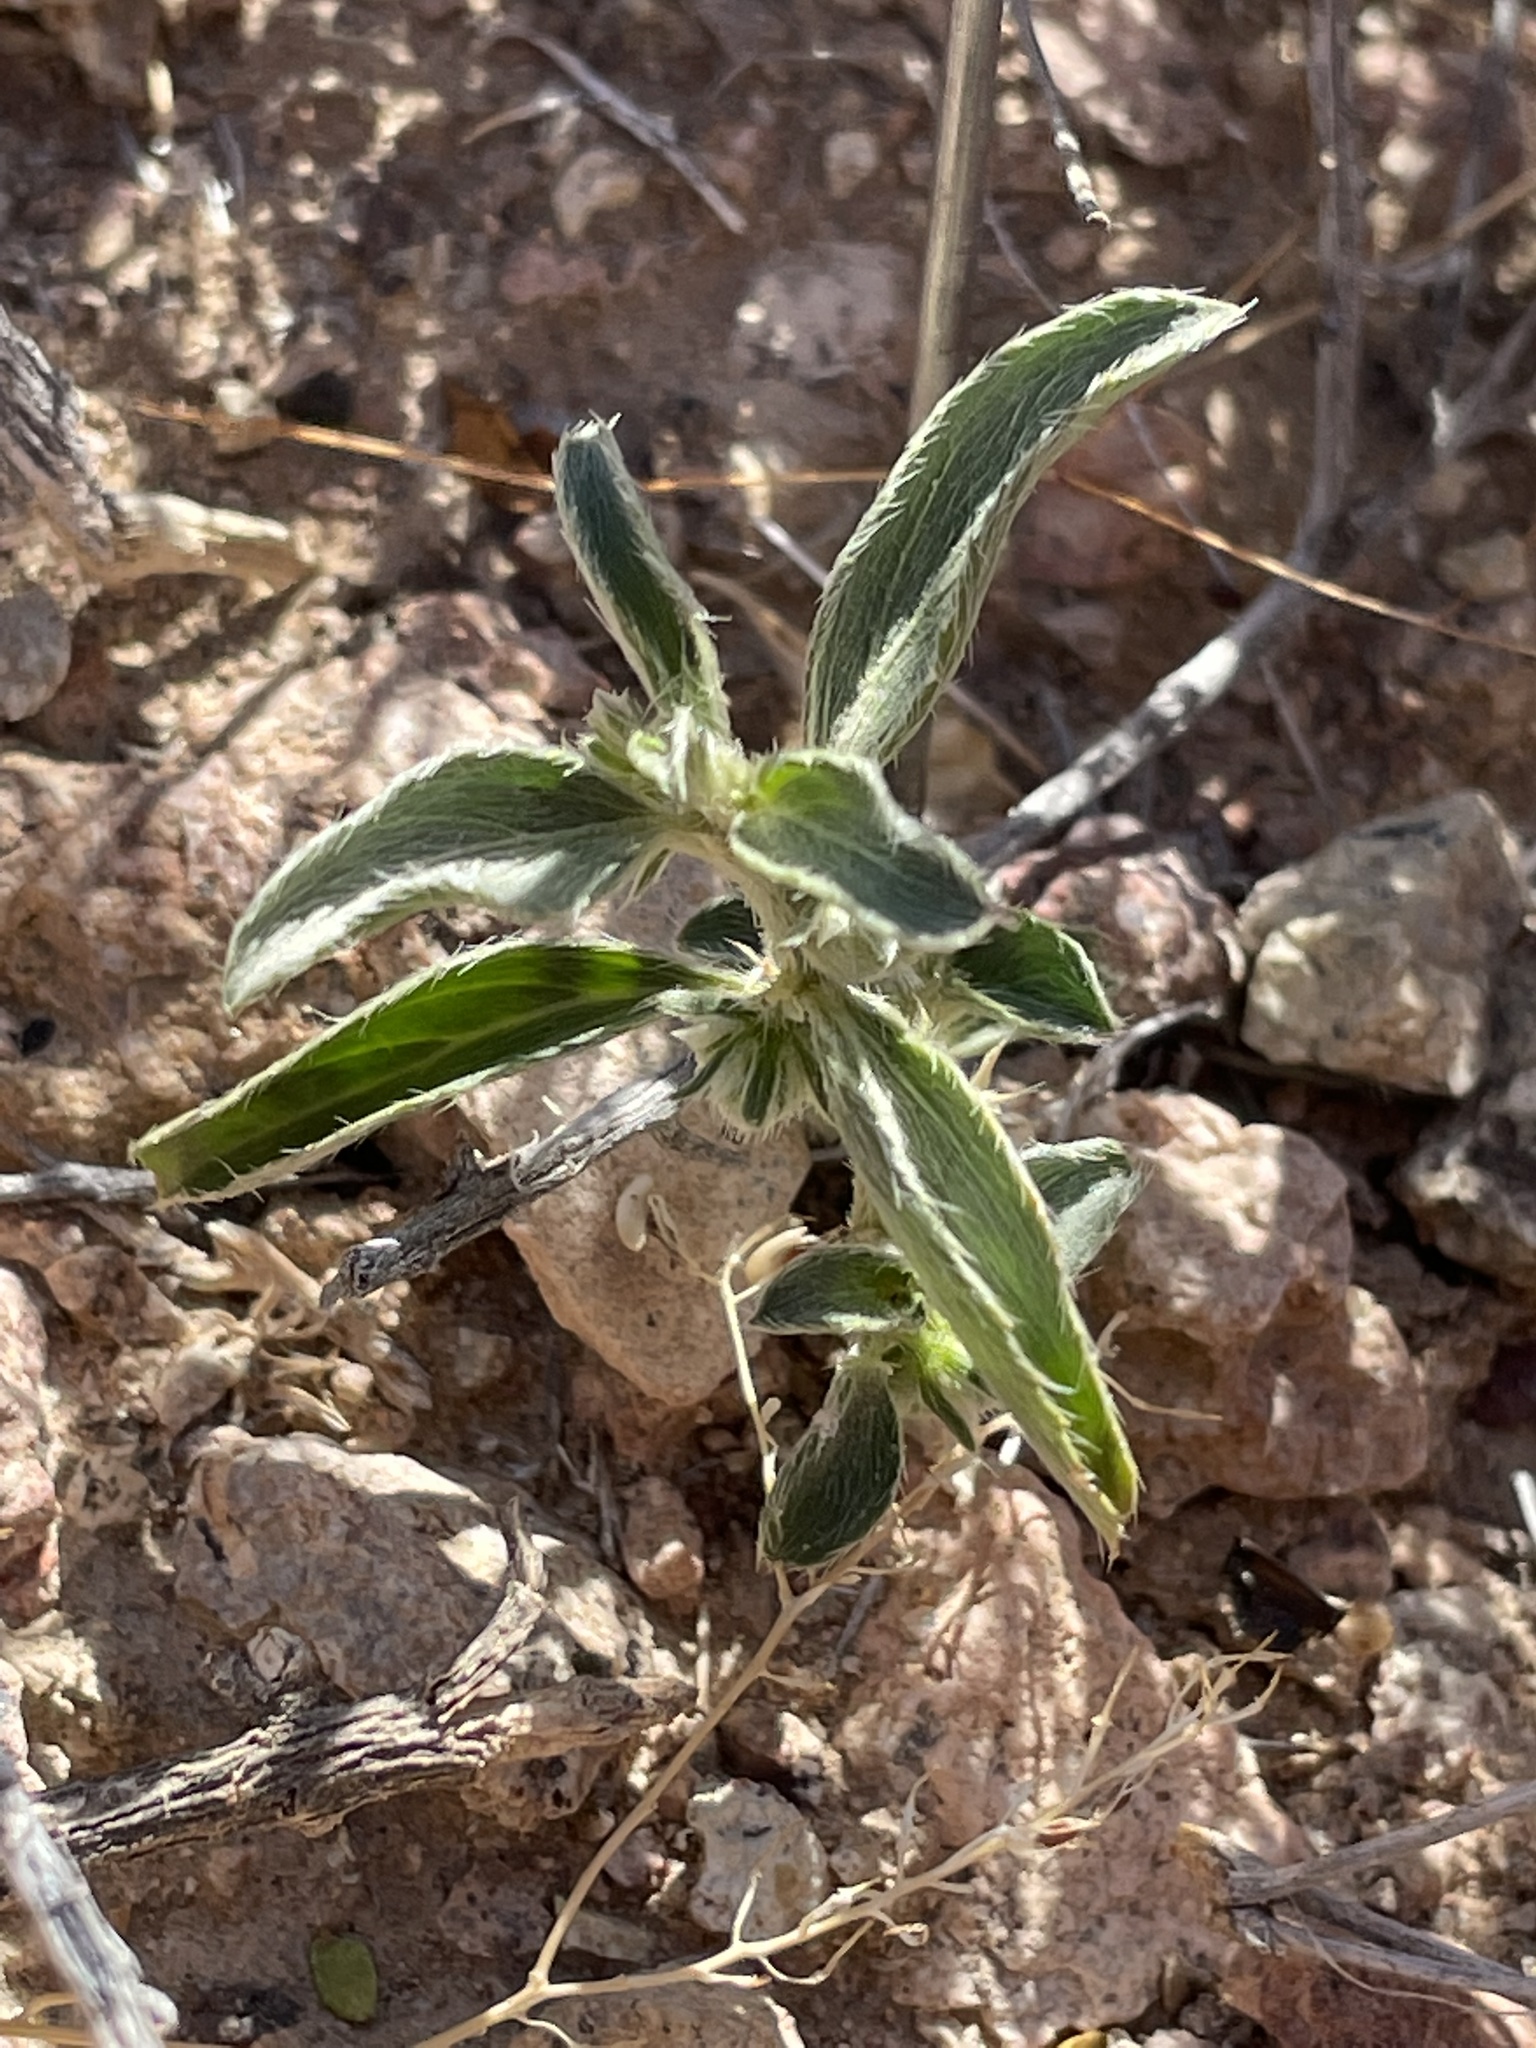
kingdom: Plantae
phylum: Tracheophyta
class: Magnoliopsida
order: Malpighiales
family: Euphorbiaceae
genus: Ditaxis
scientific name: Ditaxis serrata
